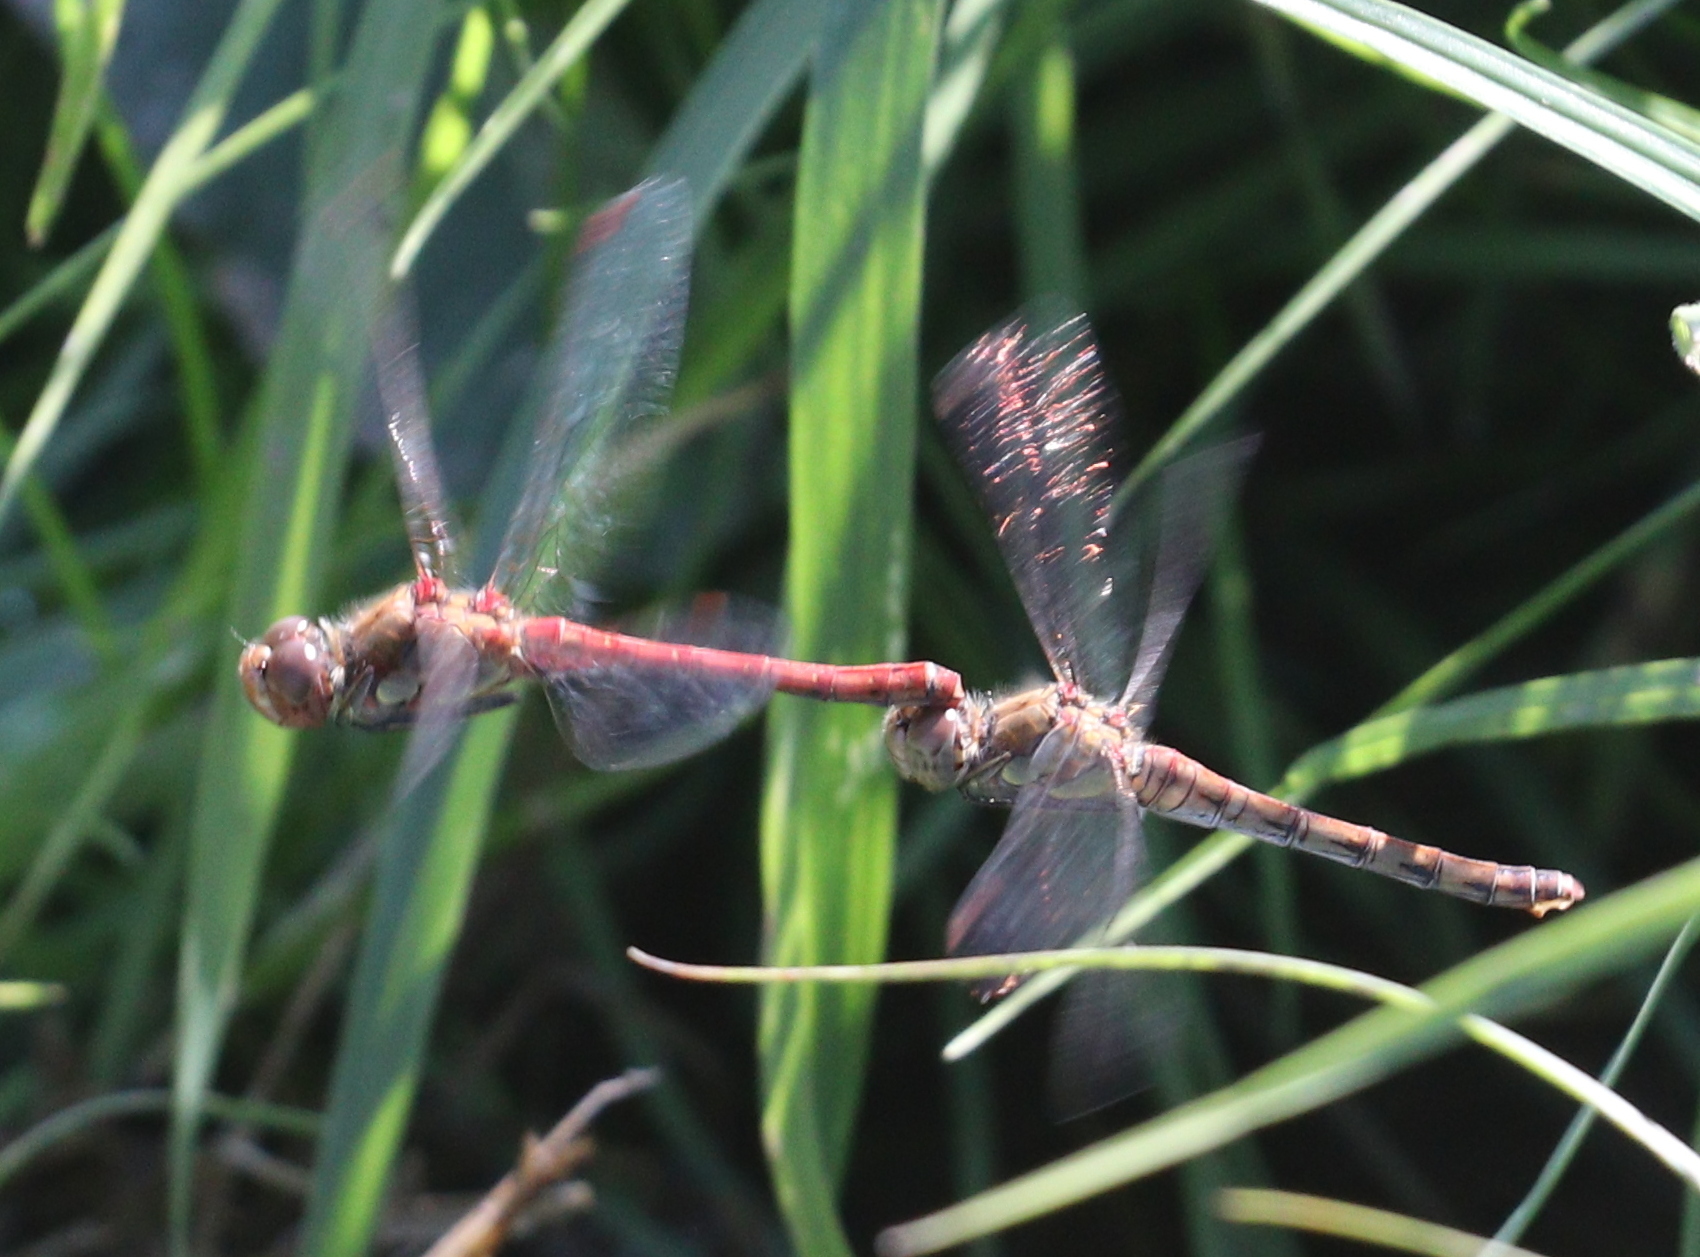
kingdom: Animalia
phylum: Arthropoda
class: Insecta
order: Odonata
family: Libellulidae
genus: Sympetrum
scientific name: Sympetrum striolatum
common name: Common darter
